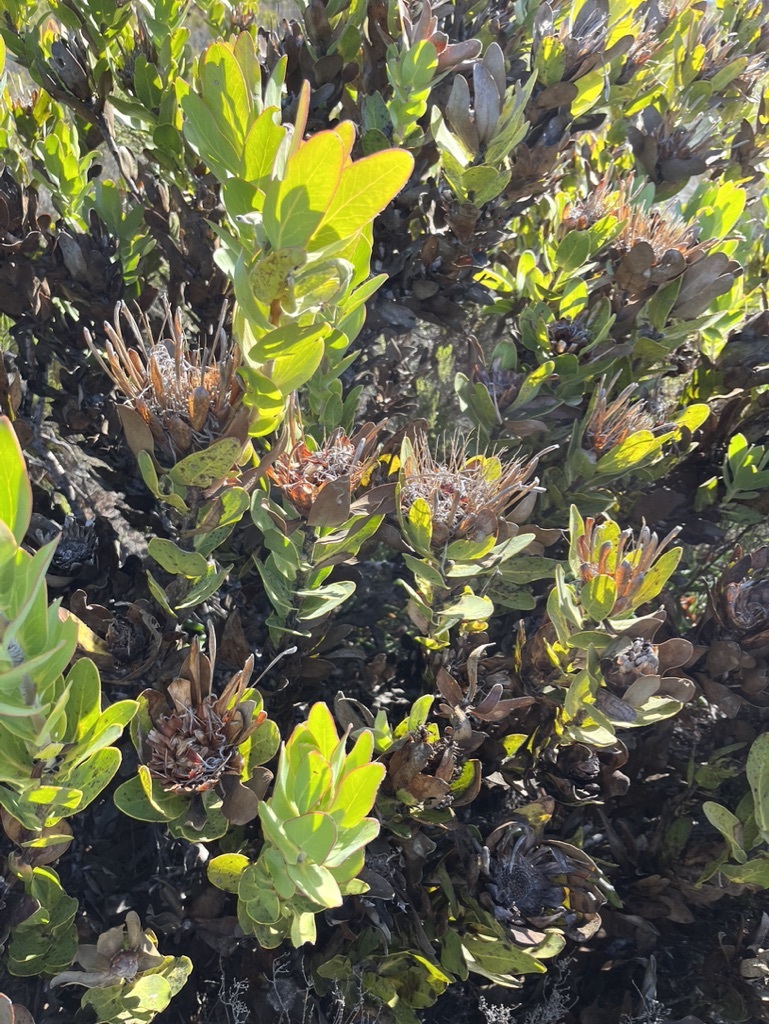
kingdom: Plantae
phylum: Tracheophyta
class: Magnoliopsida
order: Proteales
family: Proteaceae
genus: Protea
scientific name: Protea compacta
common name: Bot river protea
